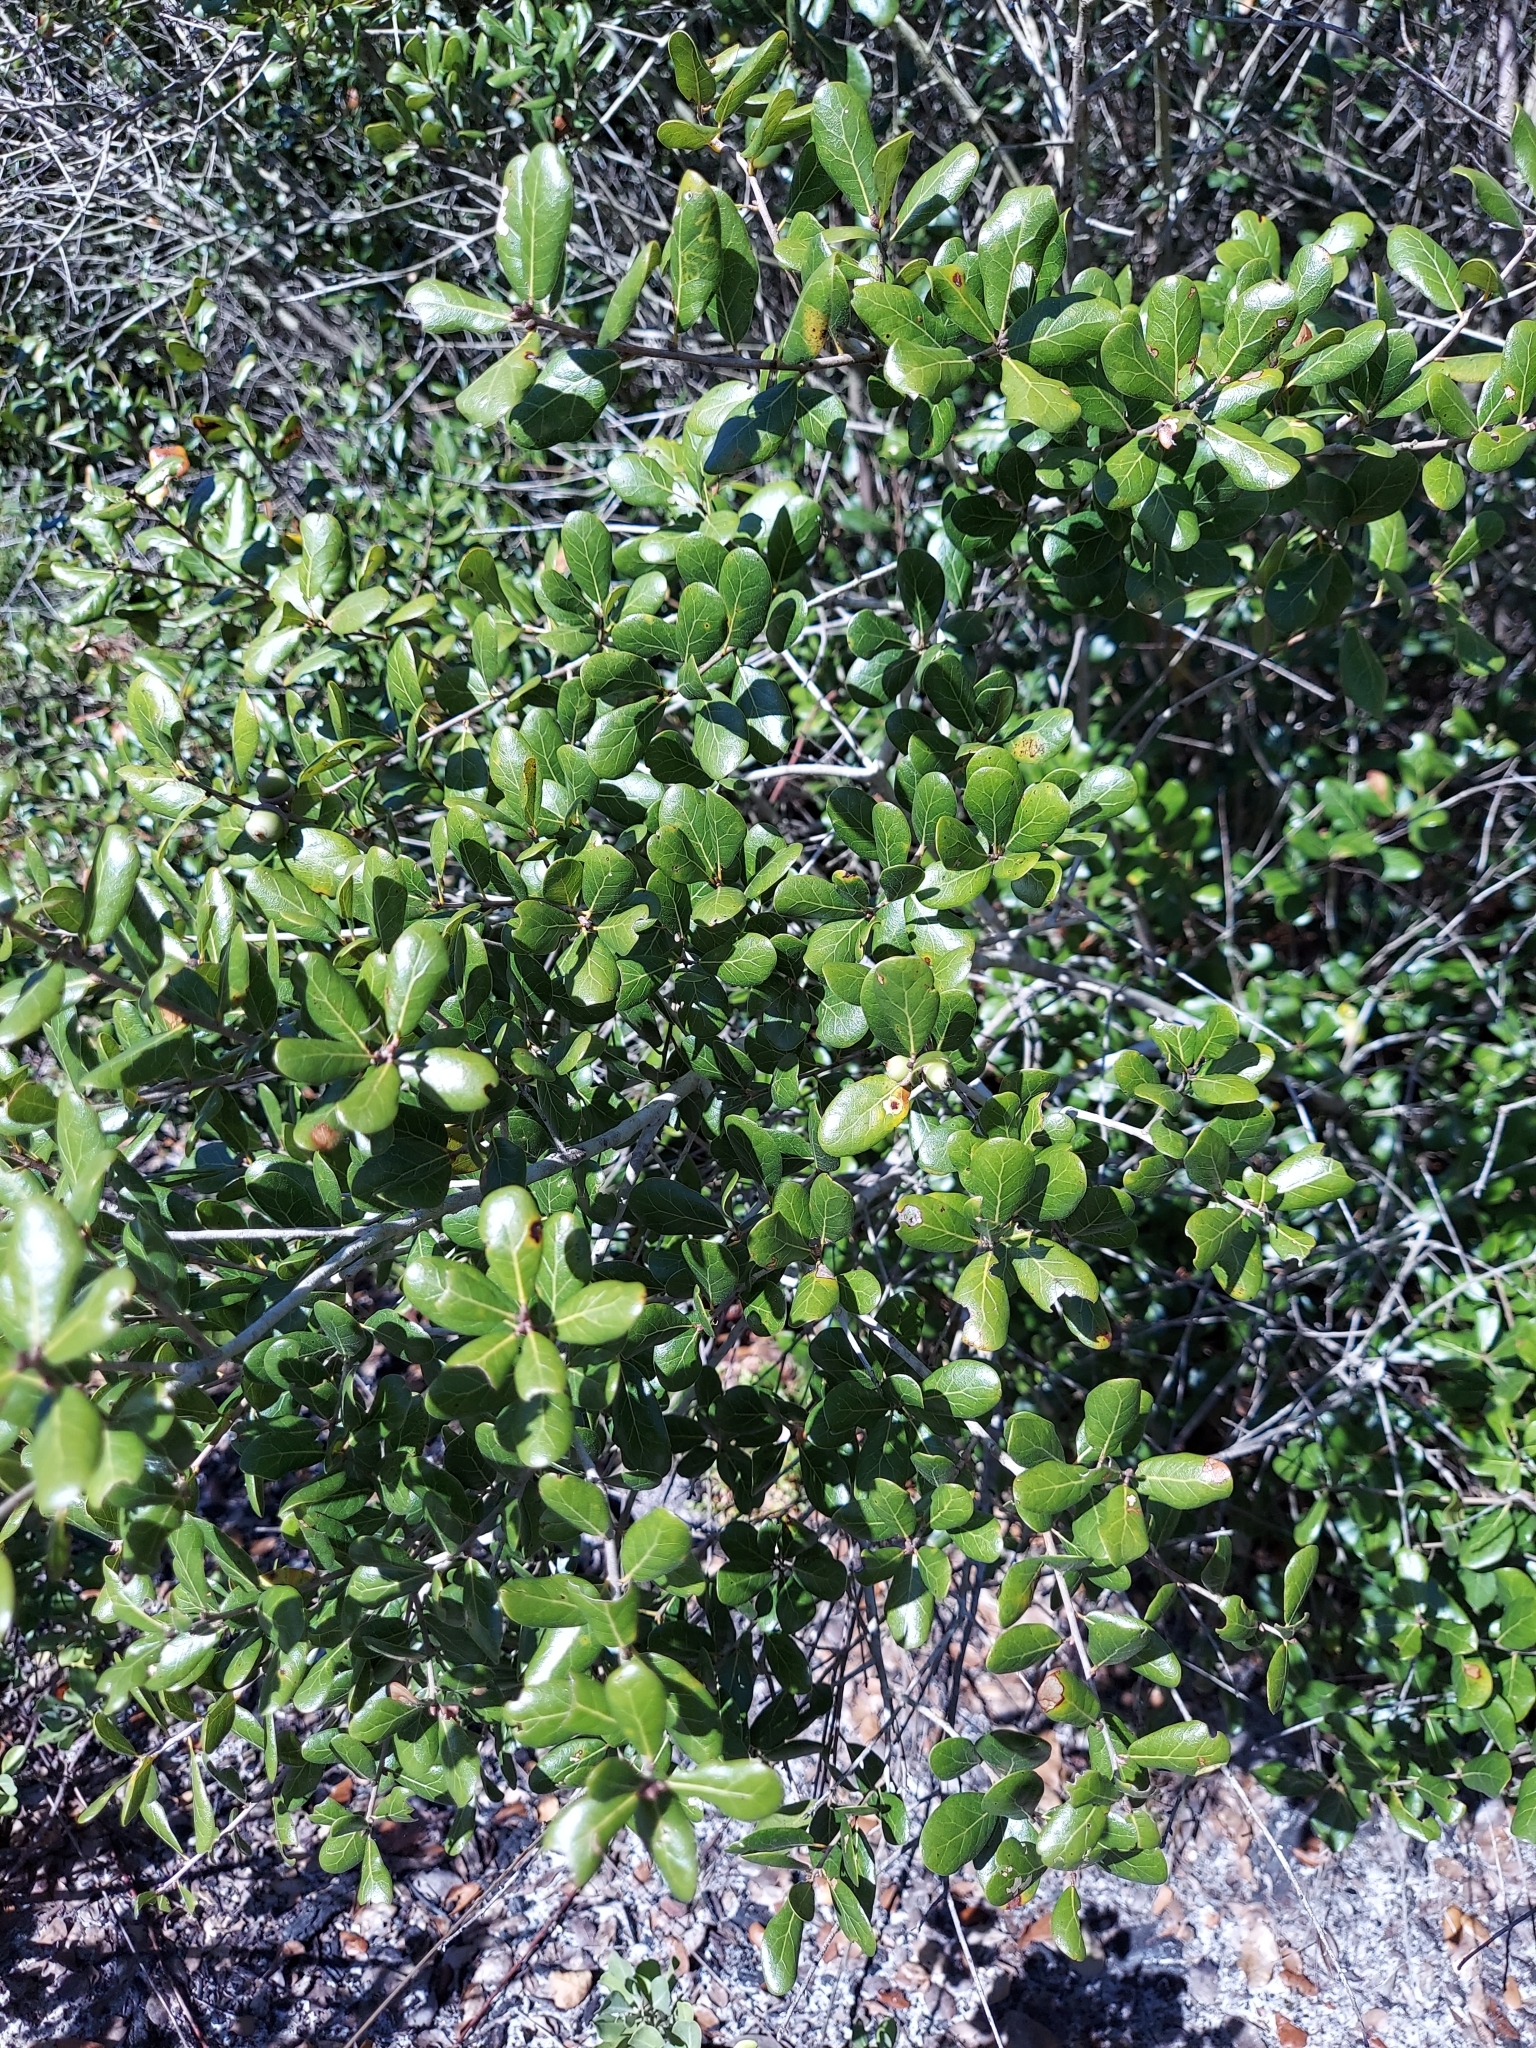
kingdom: Plantae
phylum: Tracheophyta
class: Magnoliopsida
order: Fagales
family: Fagaceae
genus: Quercus
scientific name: Quercus myrtifolia
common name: Myrtle oak
